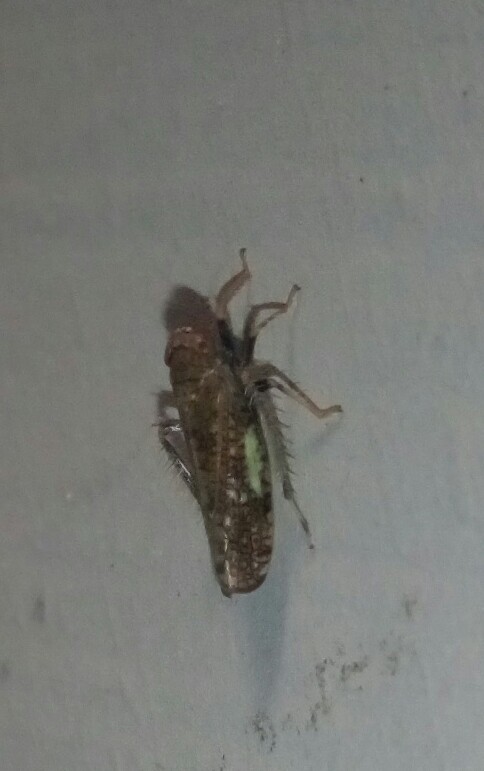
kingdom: Animalia
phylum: Arthropoda
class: Insecta
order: Hemiptera
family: Cicadellidae
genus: Orientus
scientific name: Orientus ishidae
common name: Japanese leafhopper
